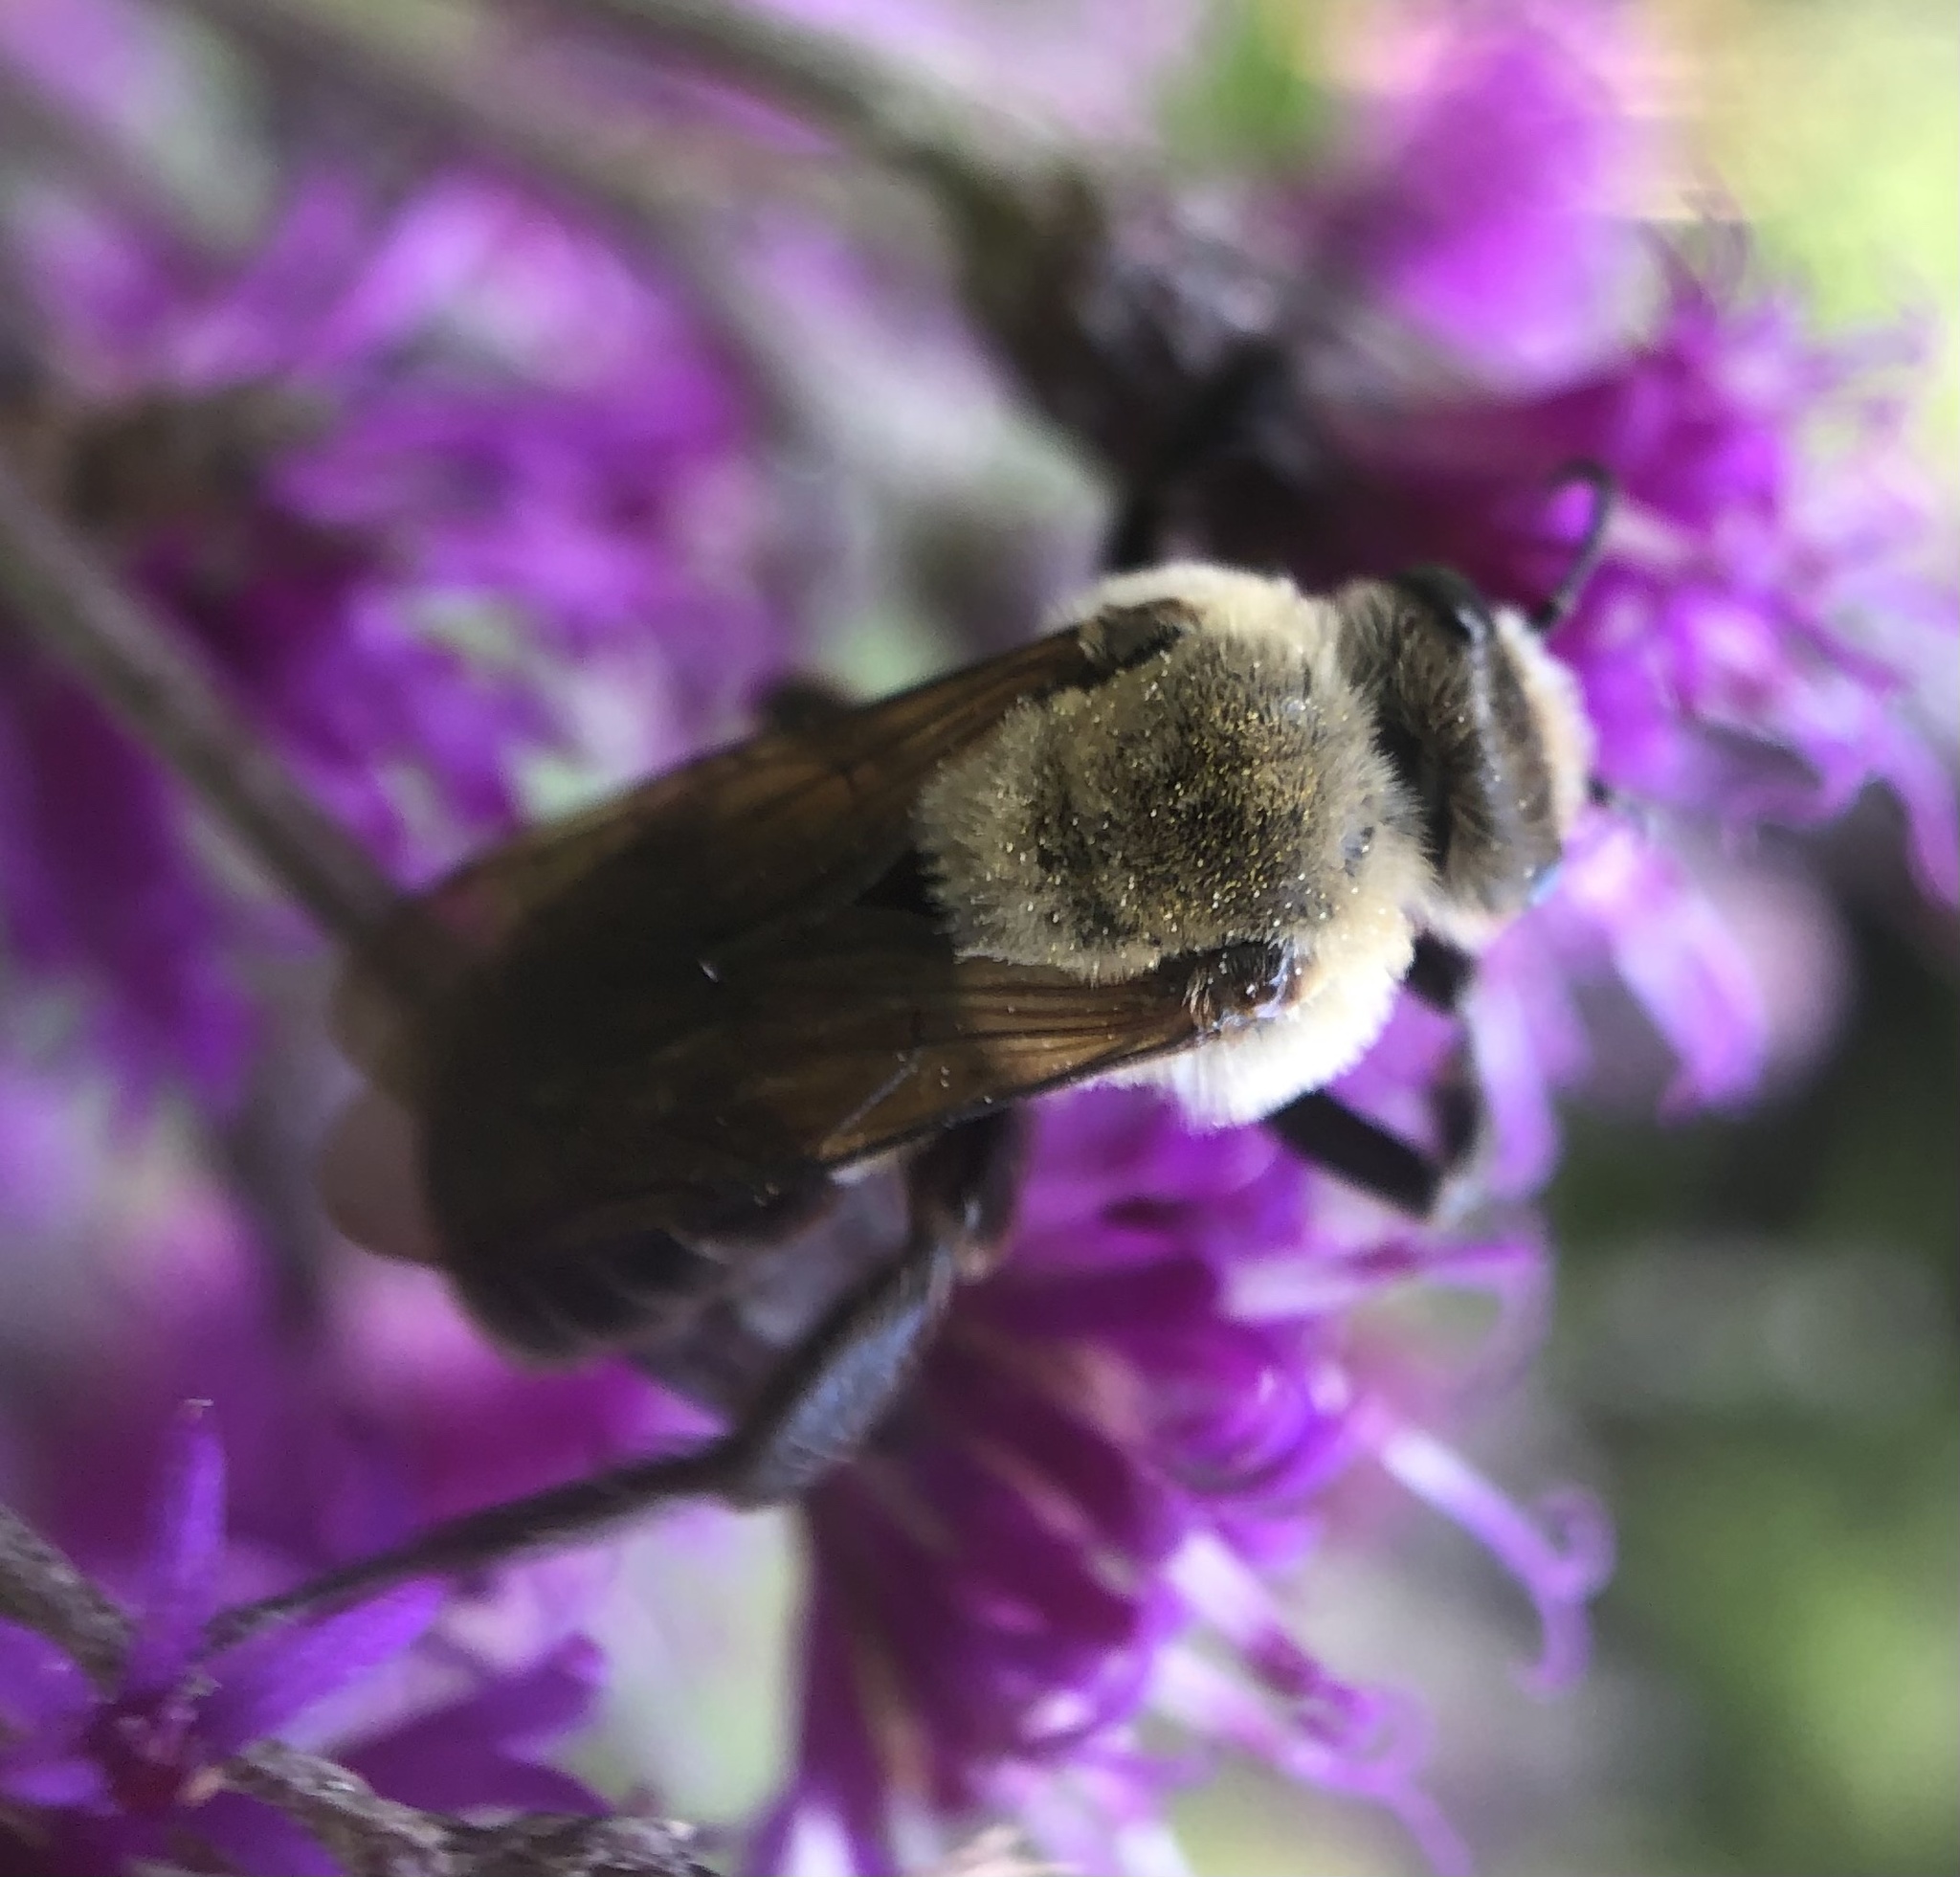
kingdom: Animalia
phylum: Arthropoda
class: Insecta
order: Hymenoptera
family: Apidae
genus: Ptilothrix
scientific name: Ptilothrix bombiformis
